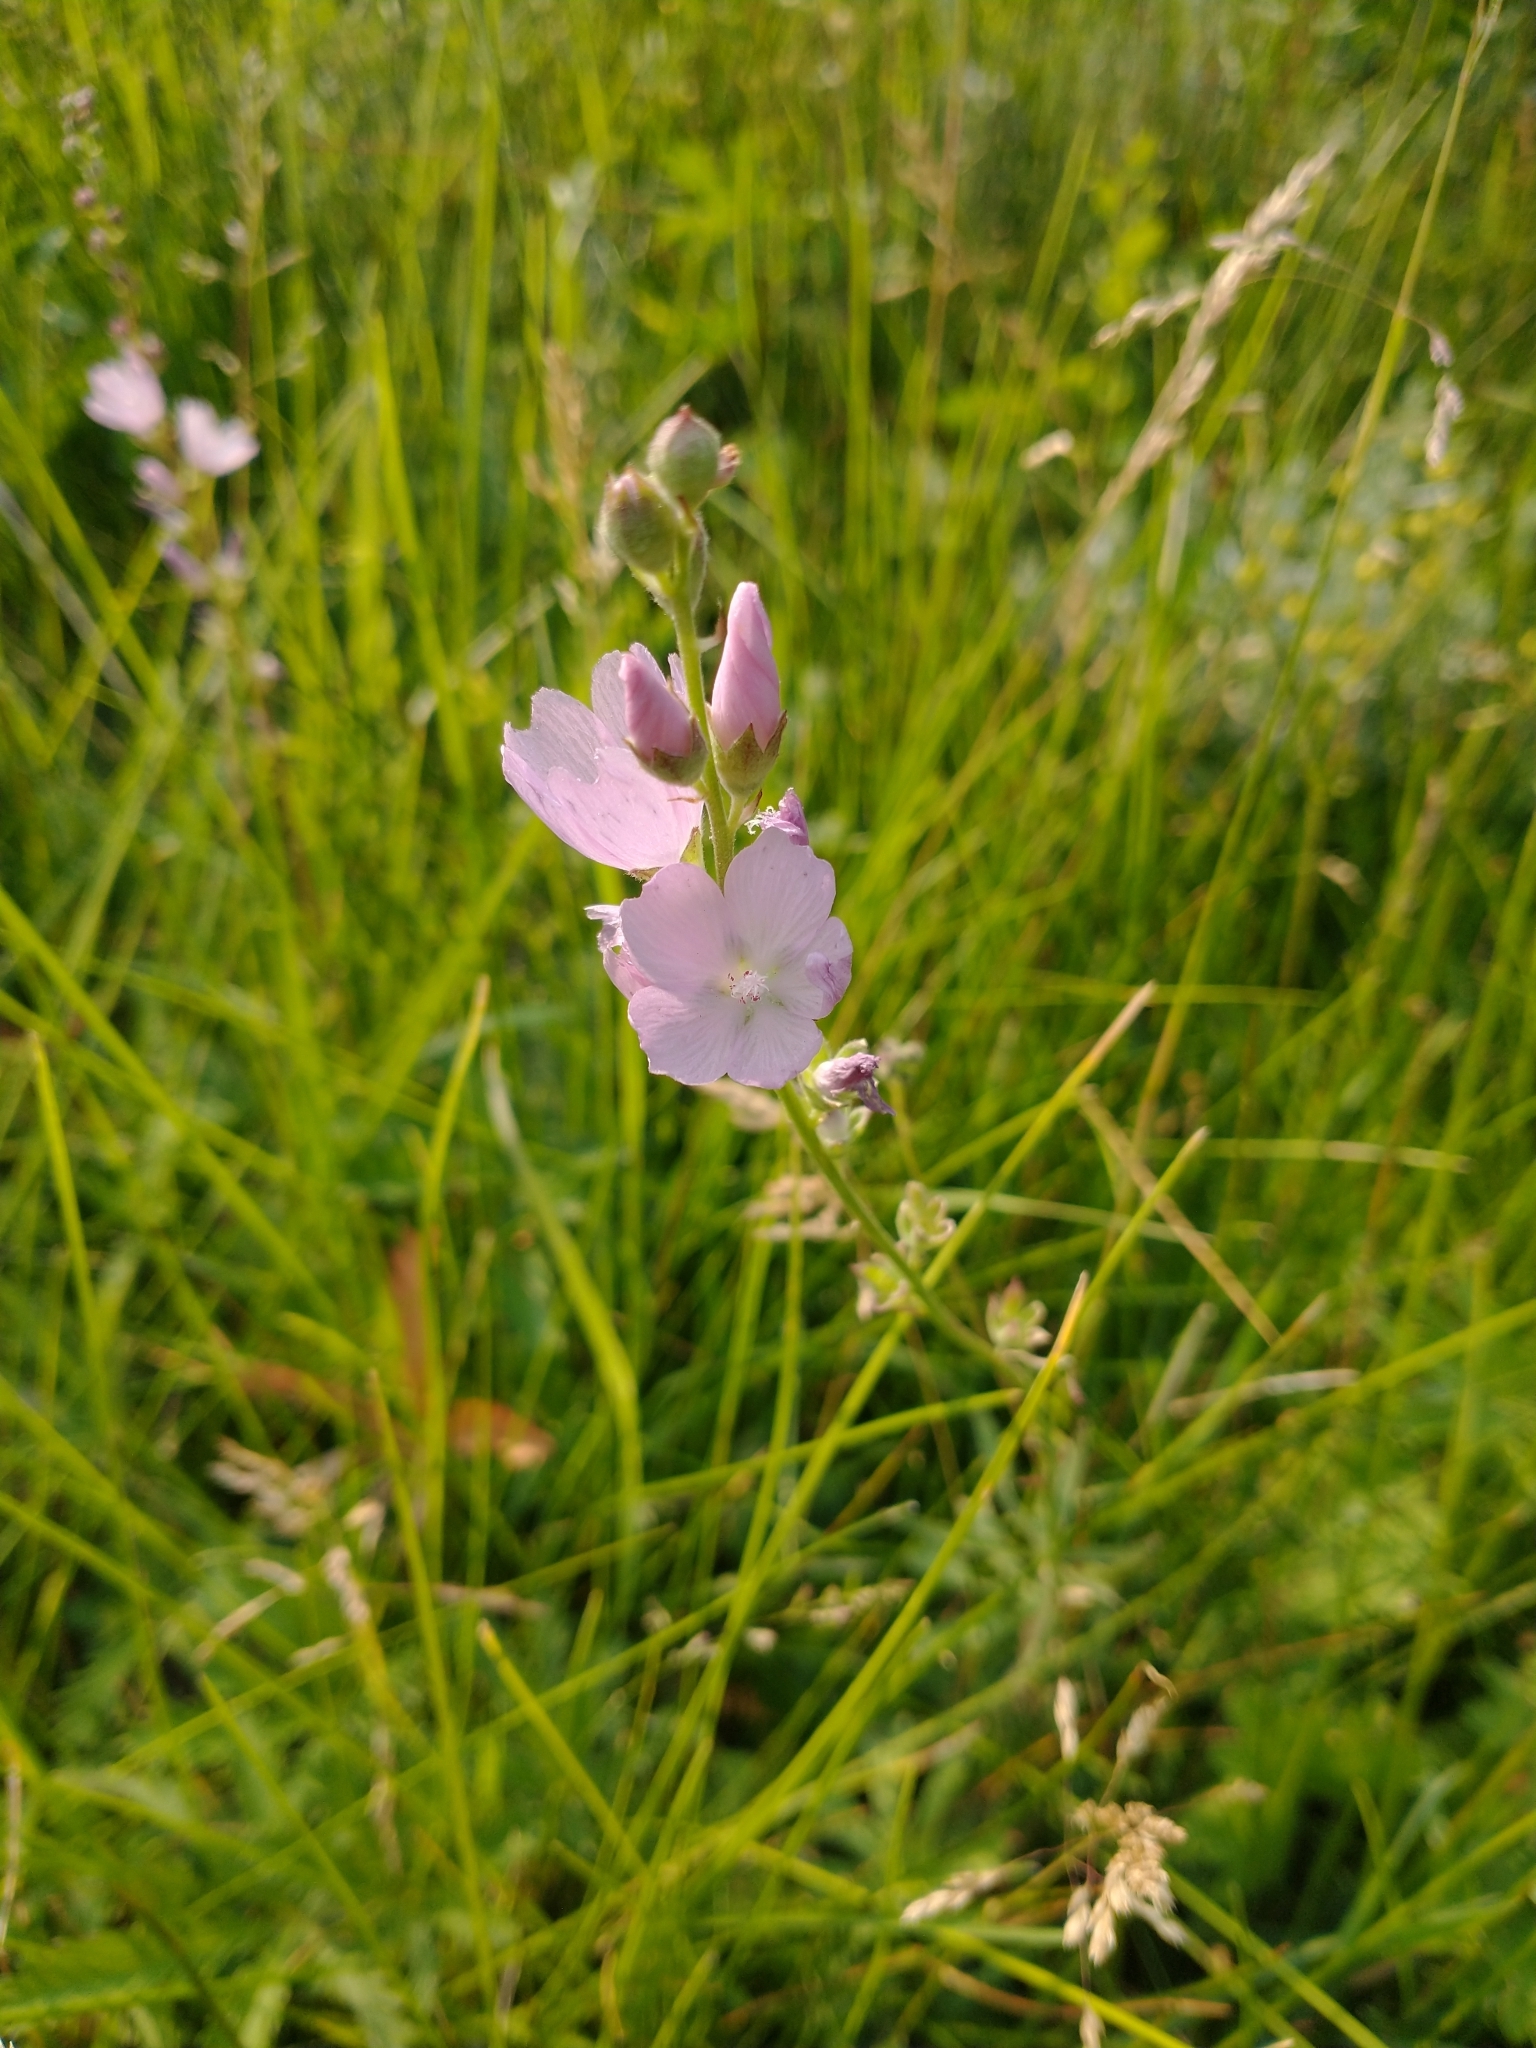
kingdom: Plantae
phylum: Tracheophyta
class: Magnoliopsida
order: Malvales
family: Malvaceae
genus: Sidalcea
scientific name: Sidalcea oregana
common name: Oregon checker-mallow
